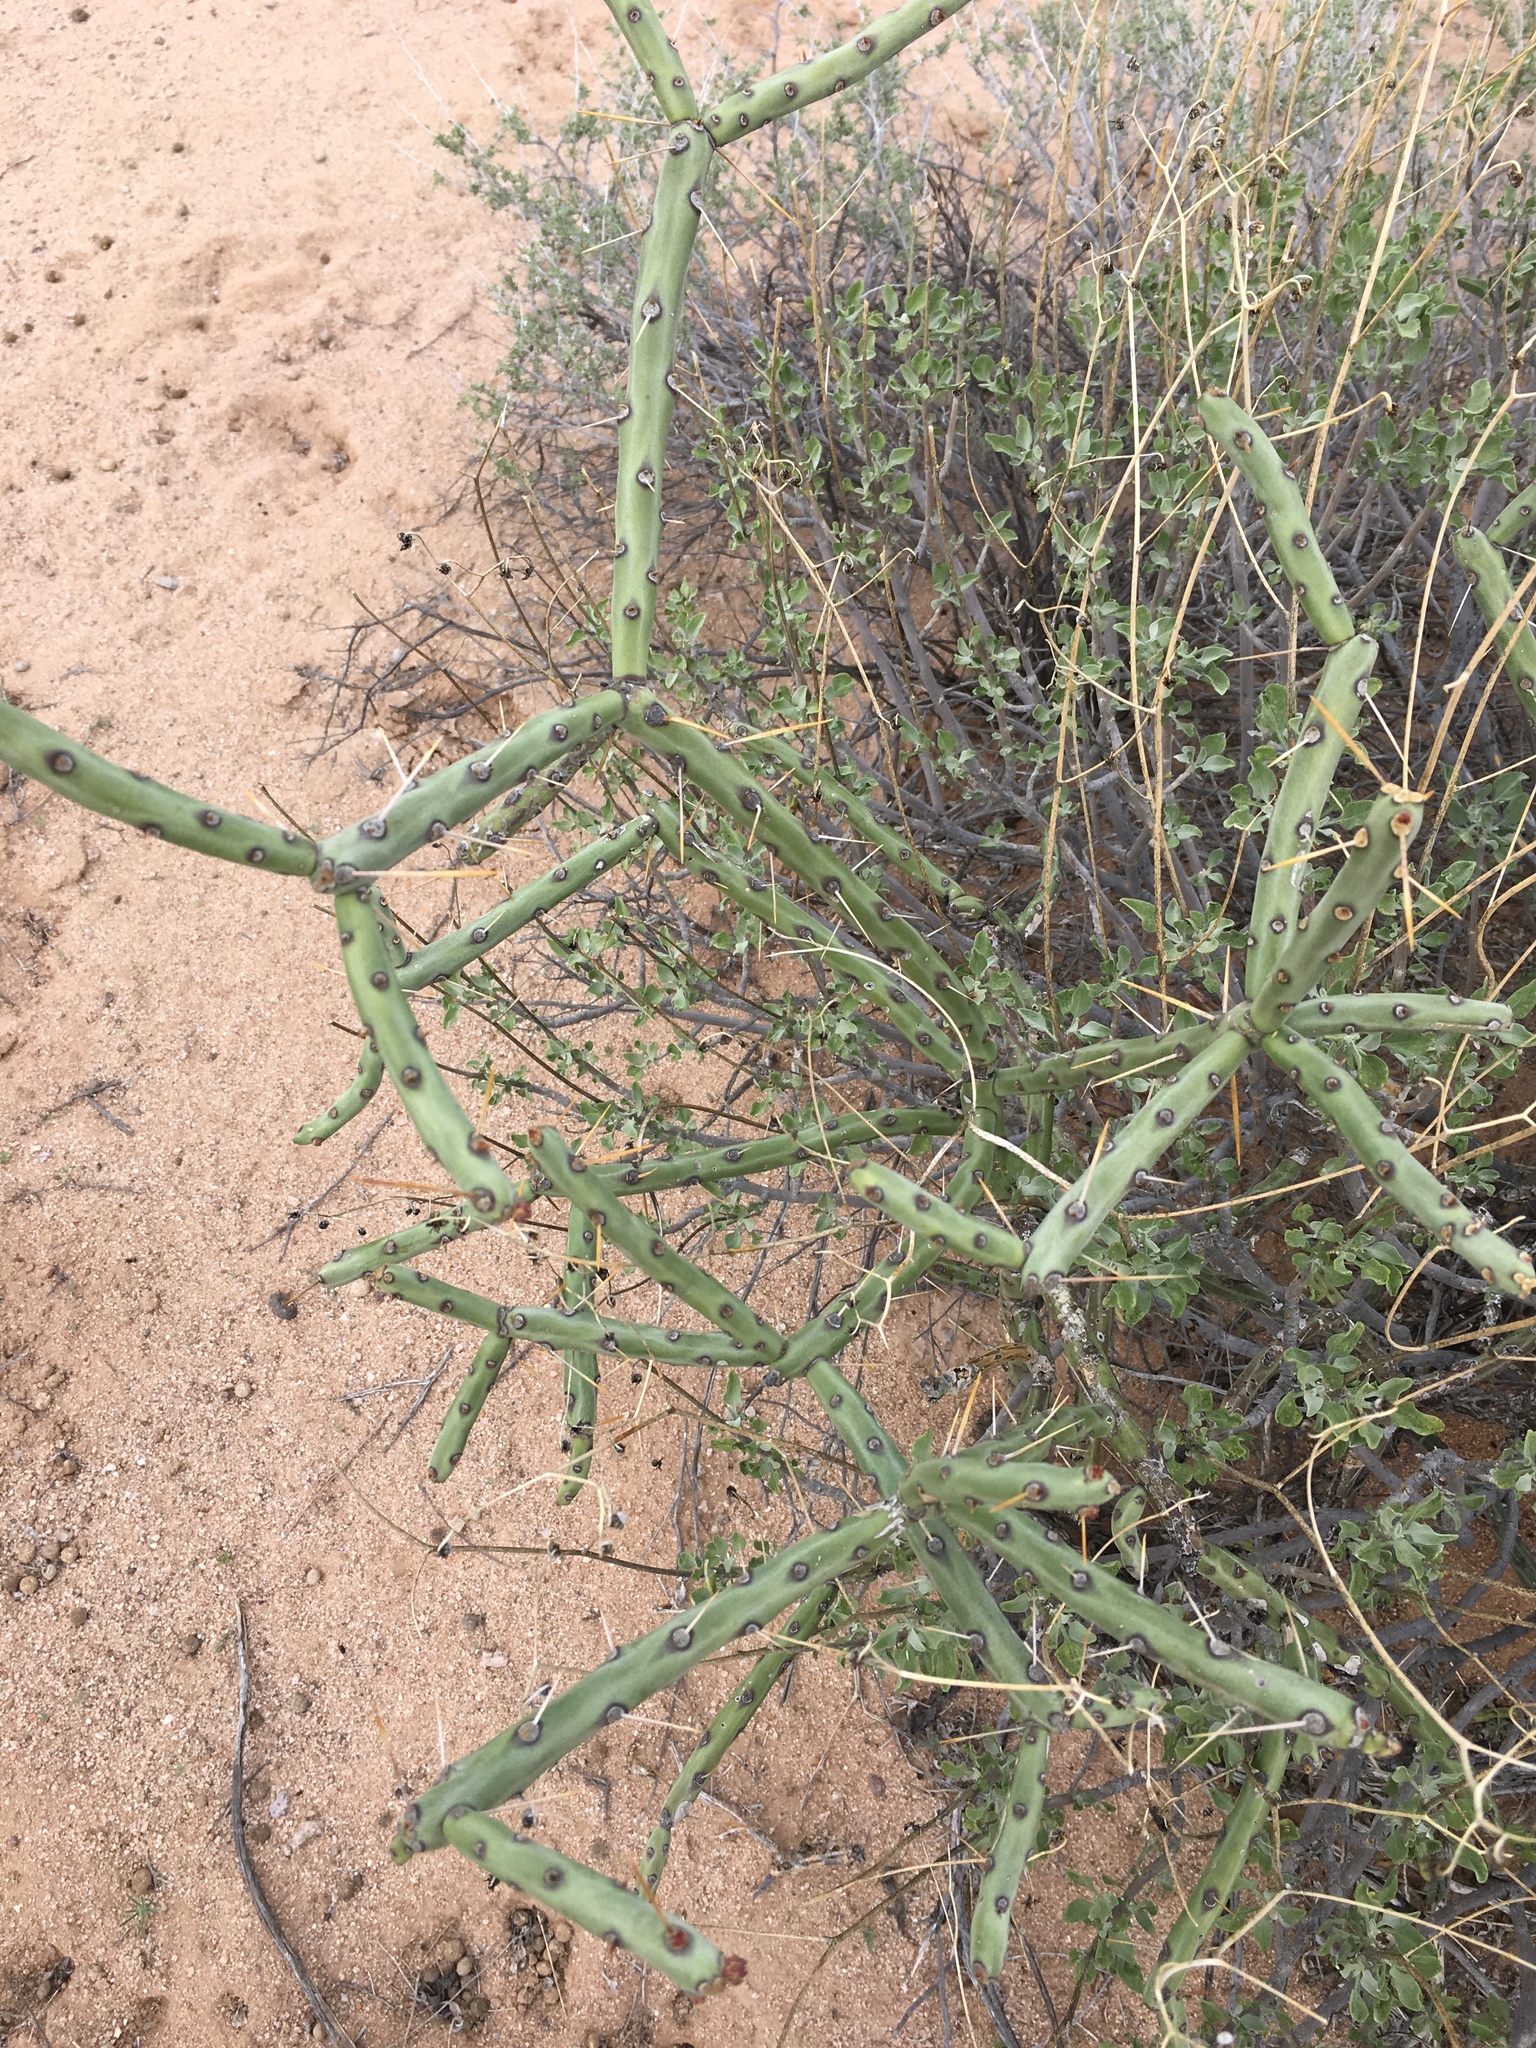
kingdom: Plantae
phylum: Tracheophyta
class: Magnoliopsida
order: Caryophyllales
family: Cactaceae
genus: Cylindropuntia
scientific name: Cylindropuntia arbuscula
